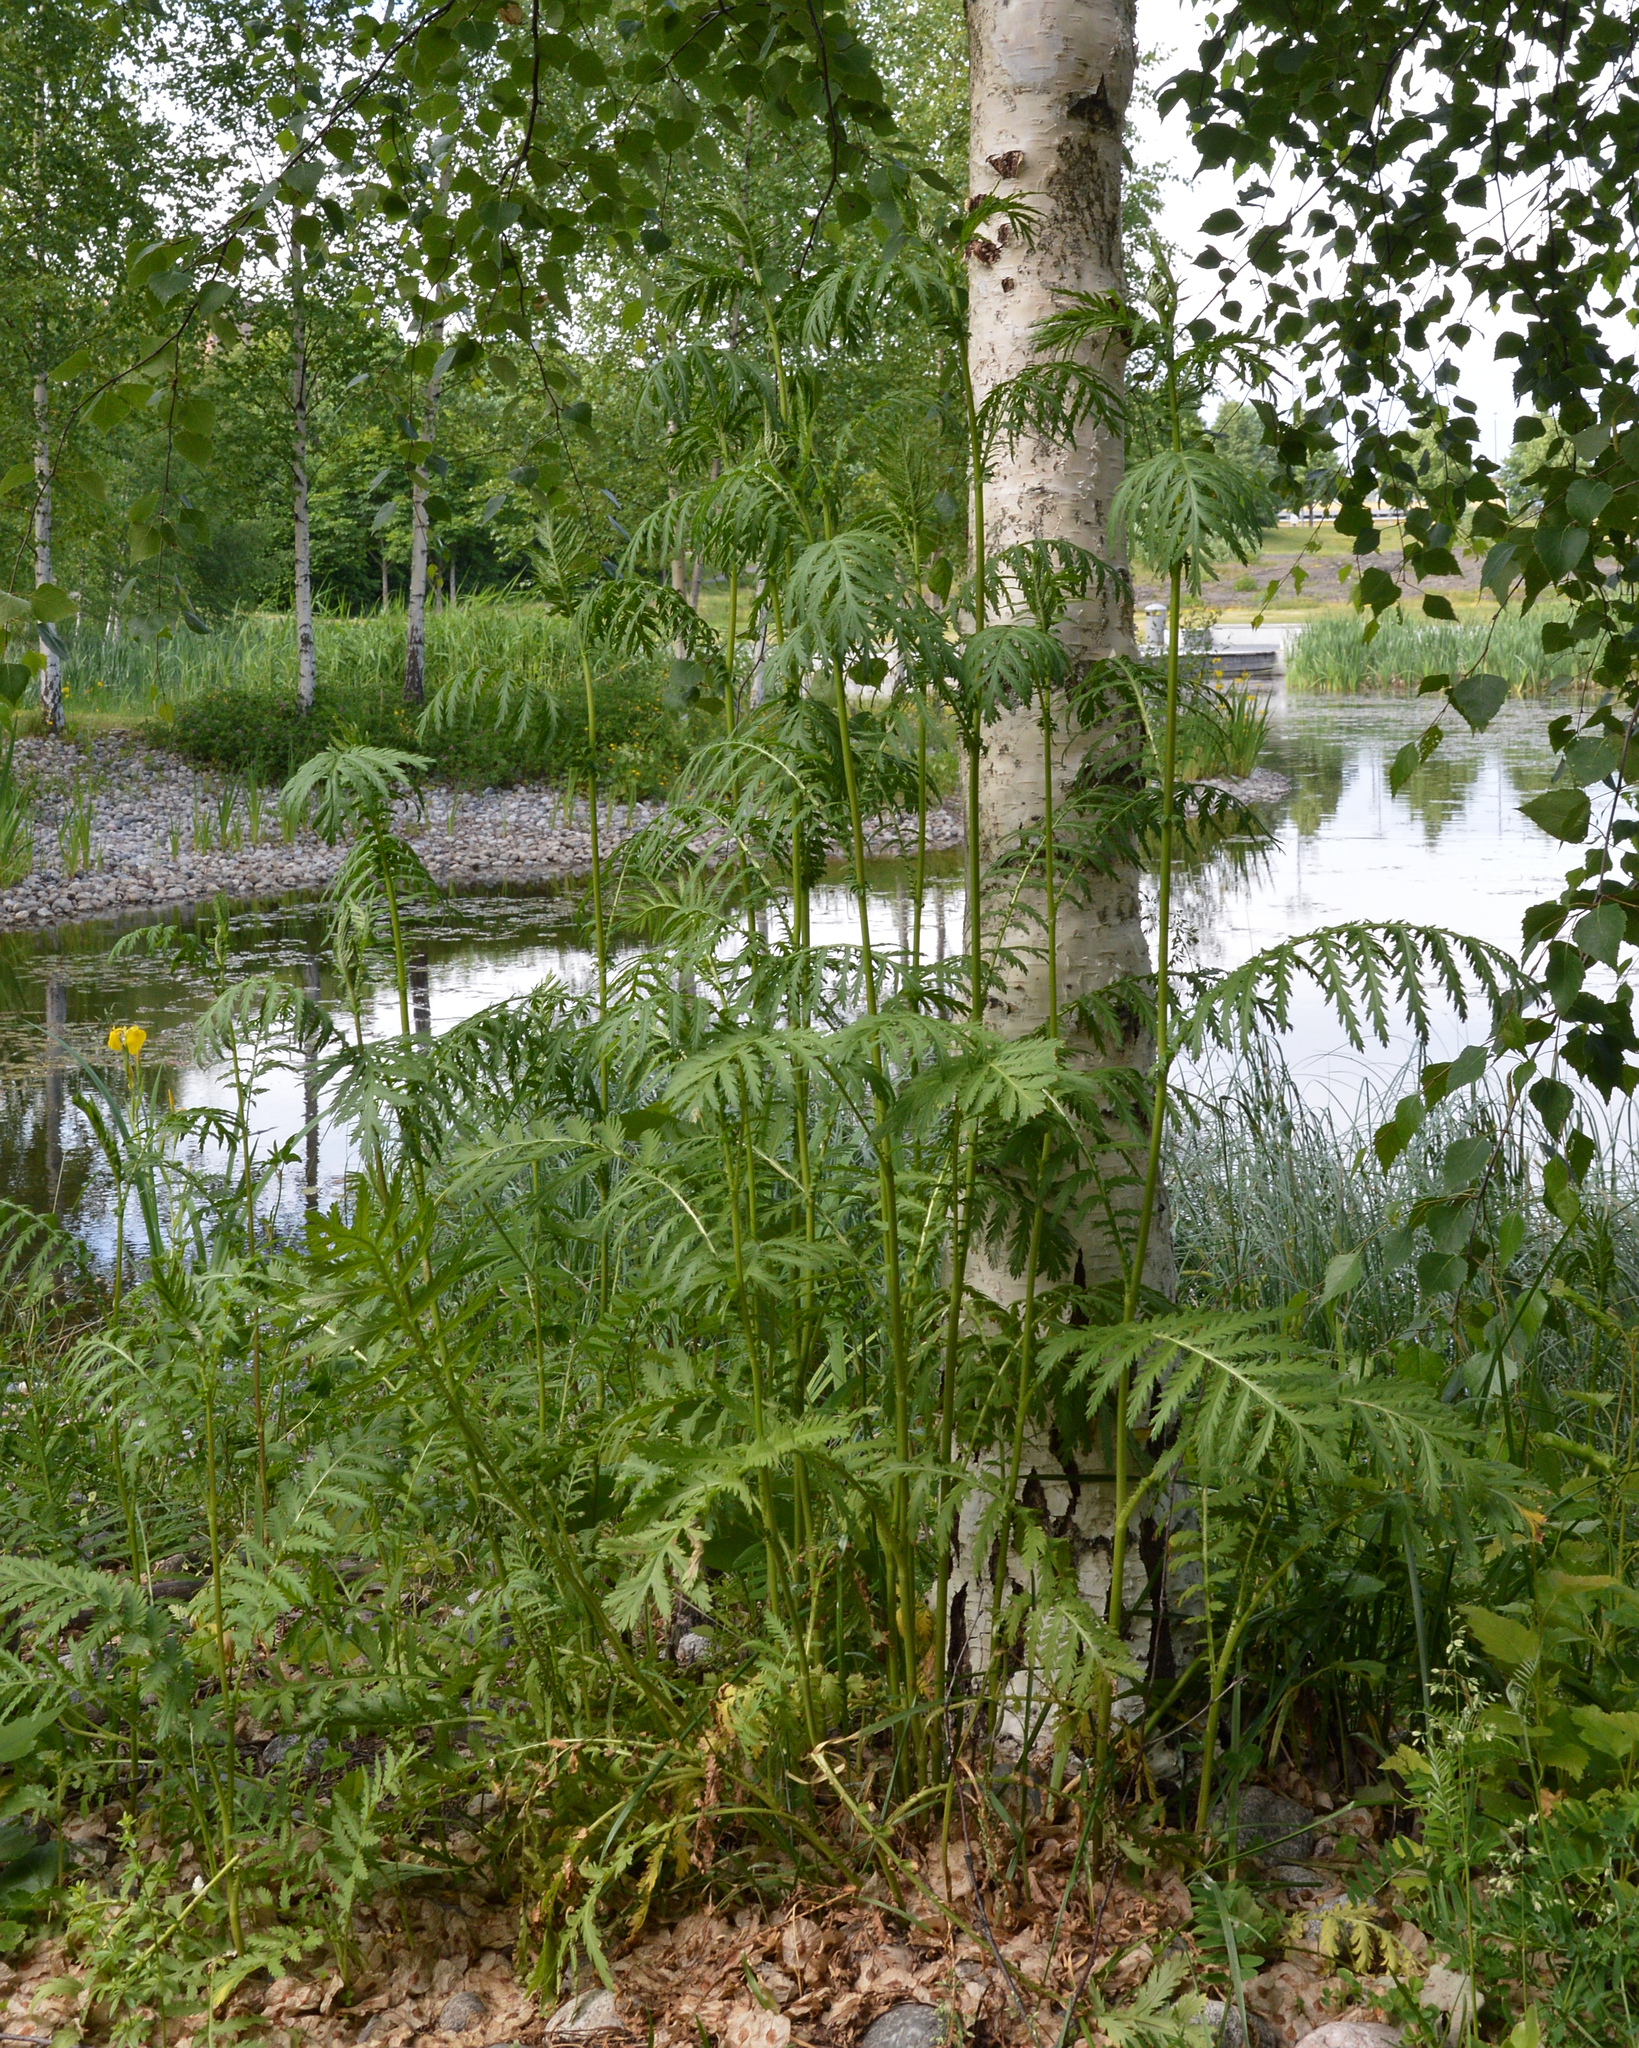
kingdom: Plantae
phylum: Tracheophyta
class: Magnoliopsida
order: Asterales
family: Asteraceae
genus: Tanacetum
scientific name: Tanacetum vulgare
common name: Common tansy
